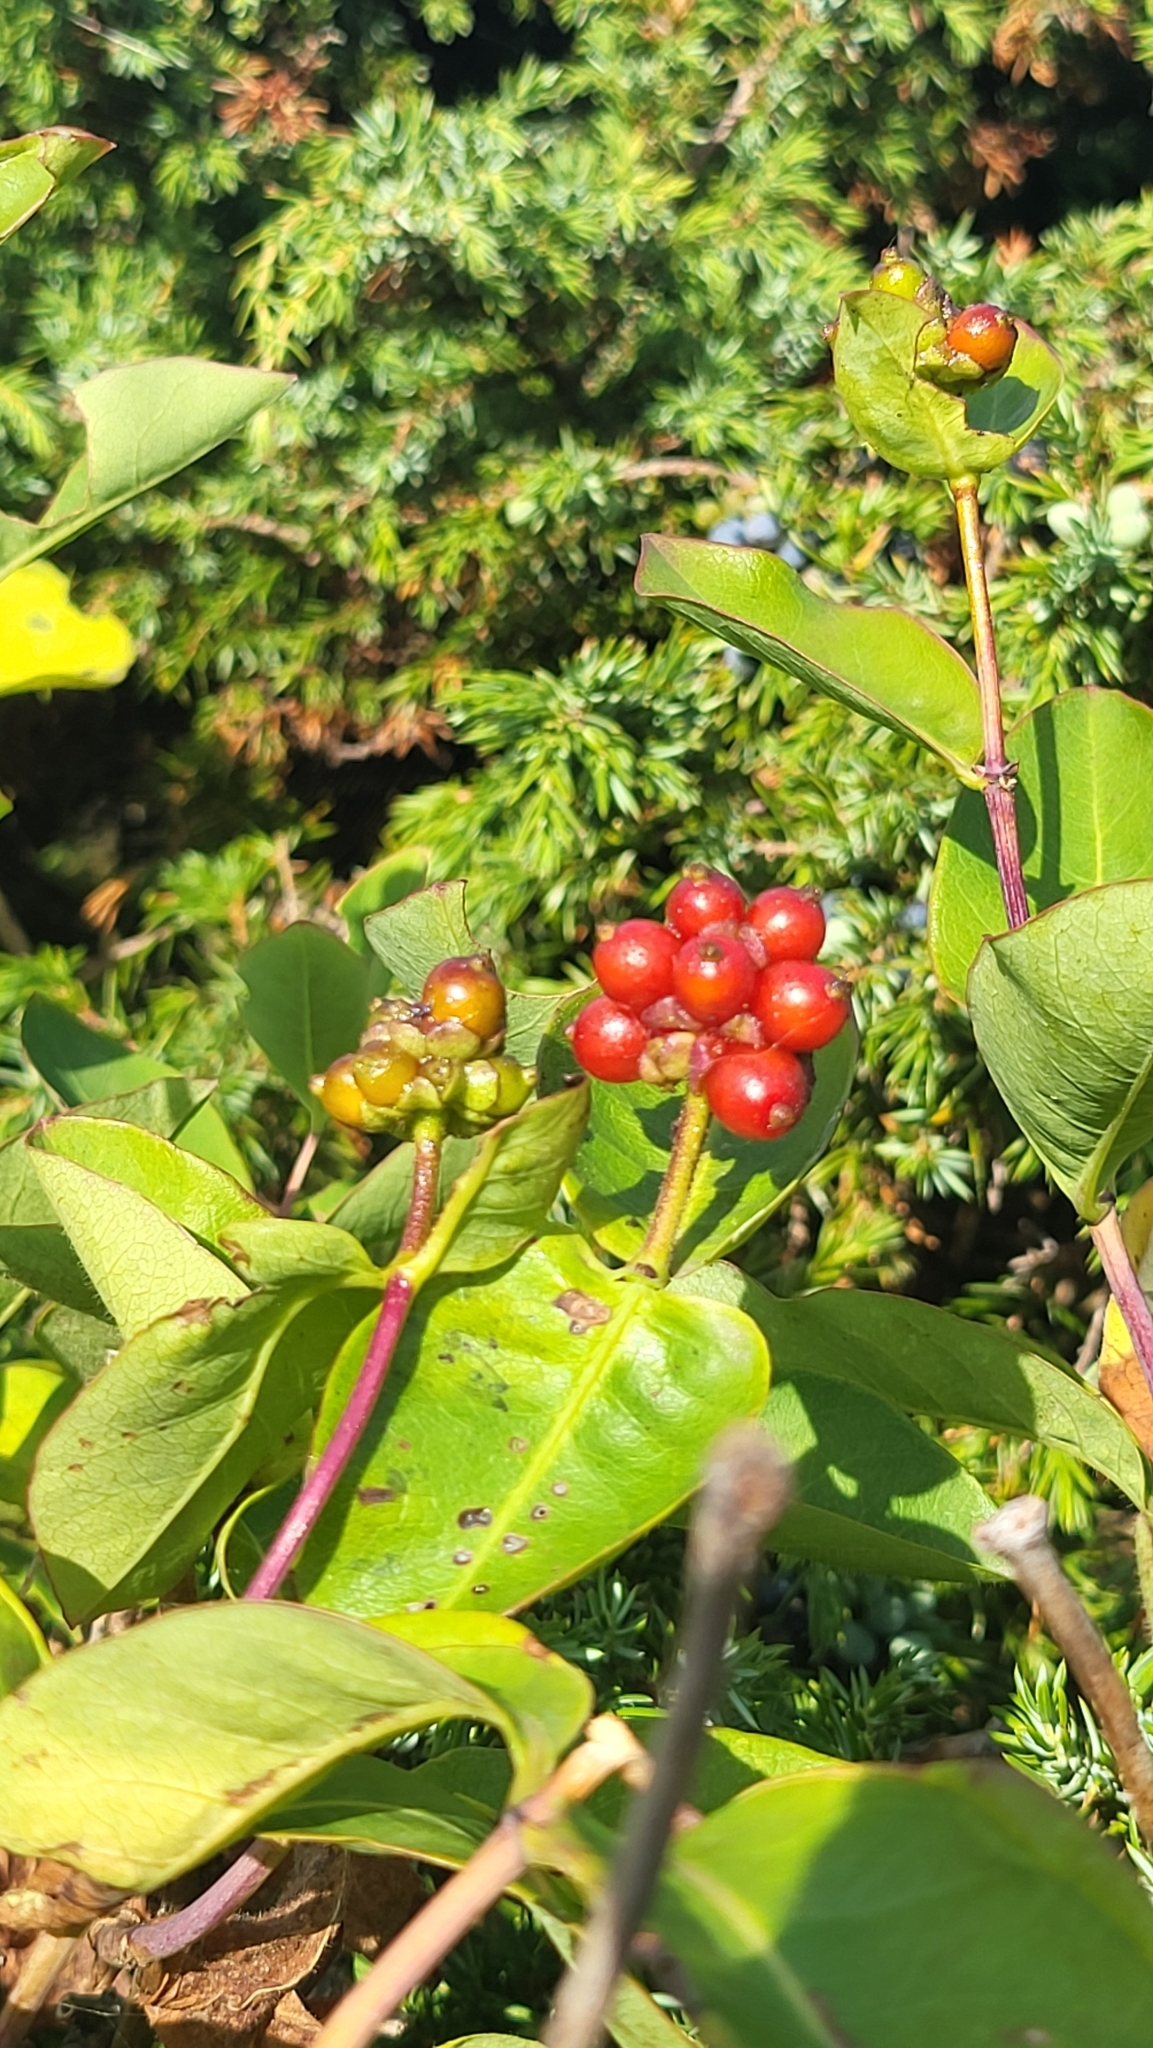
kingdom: Plantae
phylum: Tracheophyta
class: Magnoliopsida
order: Dipsacales
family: Caprifoliaceae
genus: Lonicera
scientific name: Lonicera periclymenum
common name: European honeysuckle
